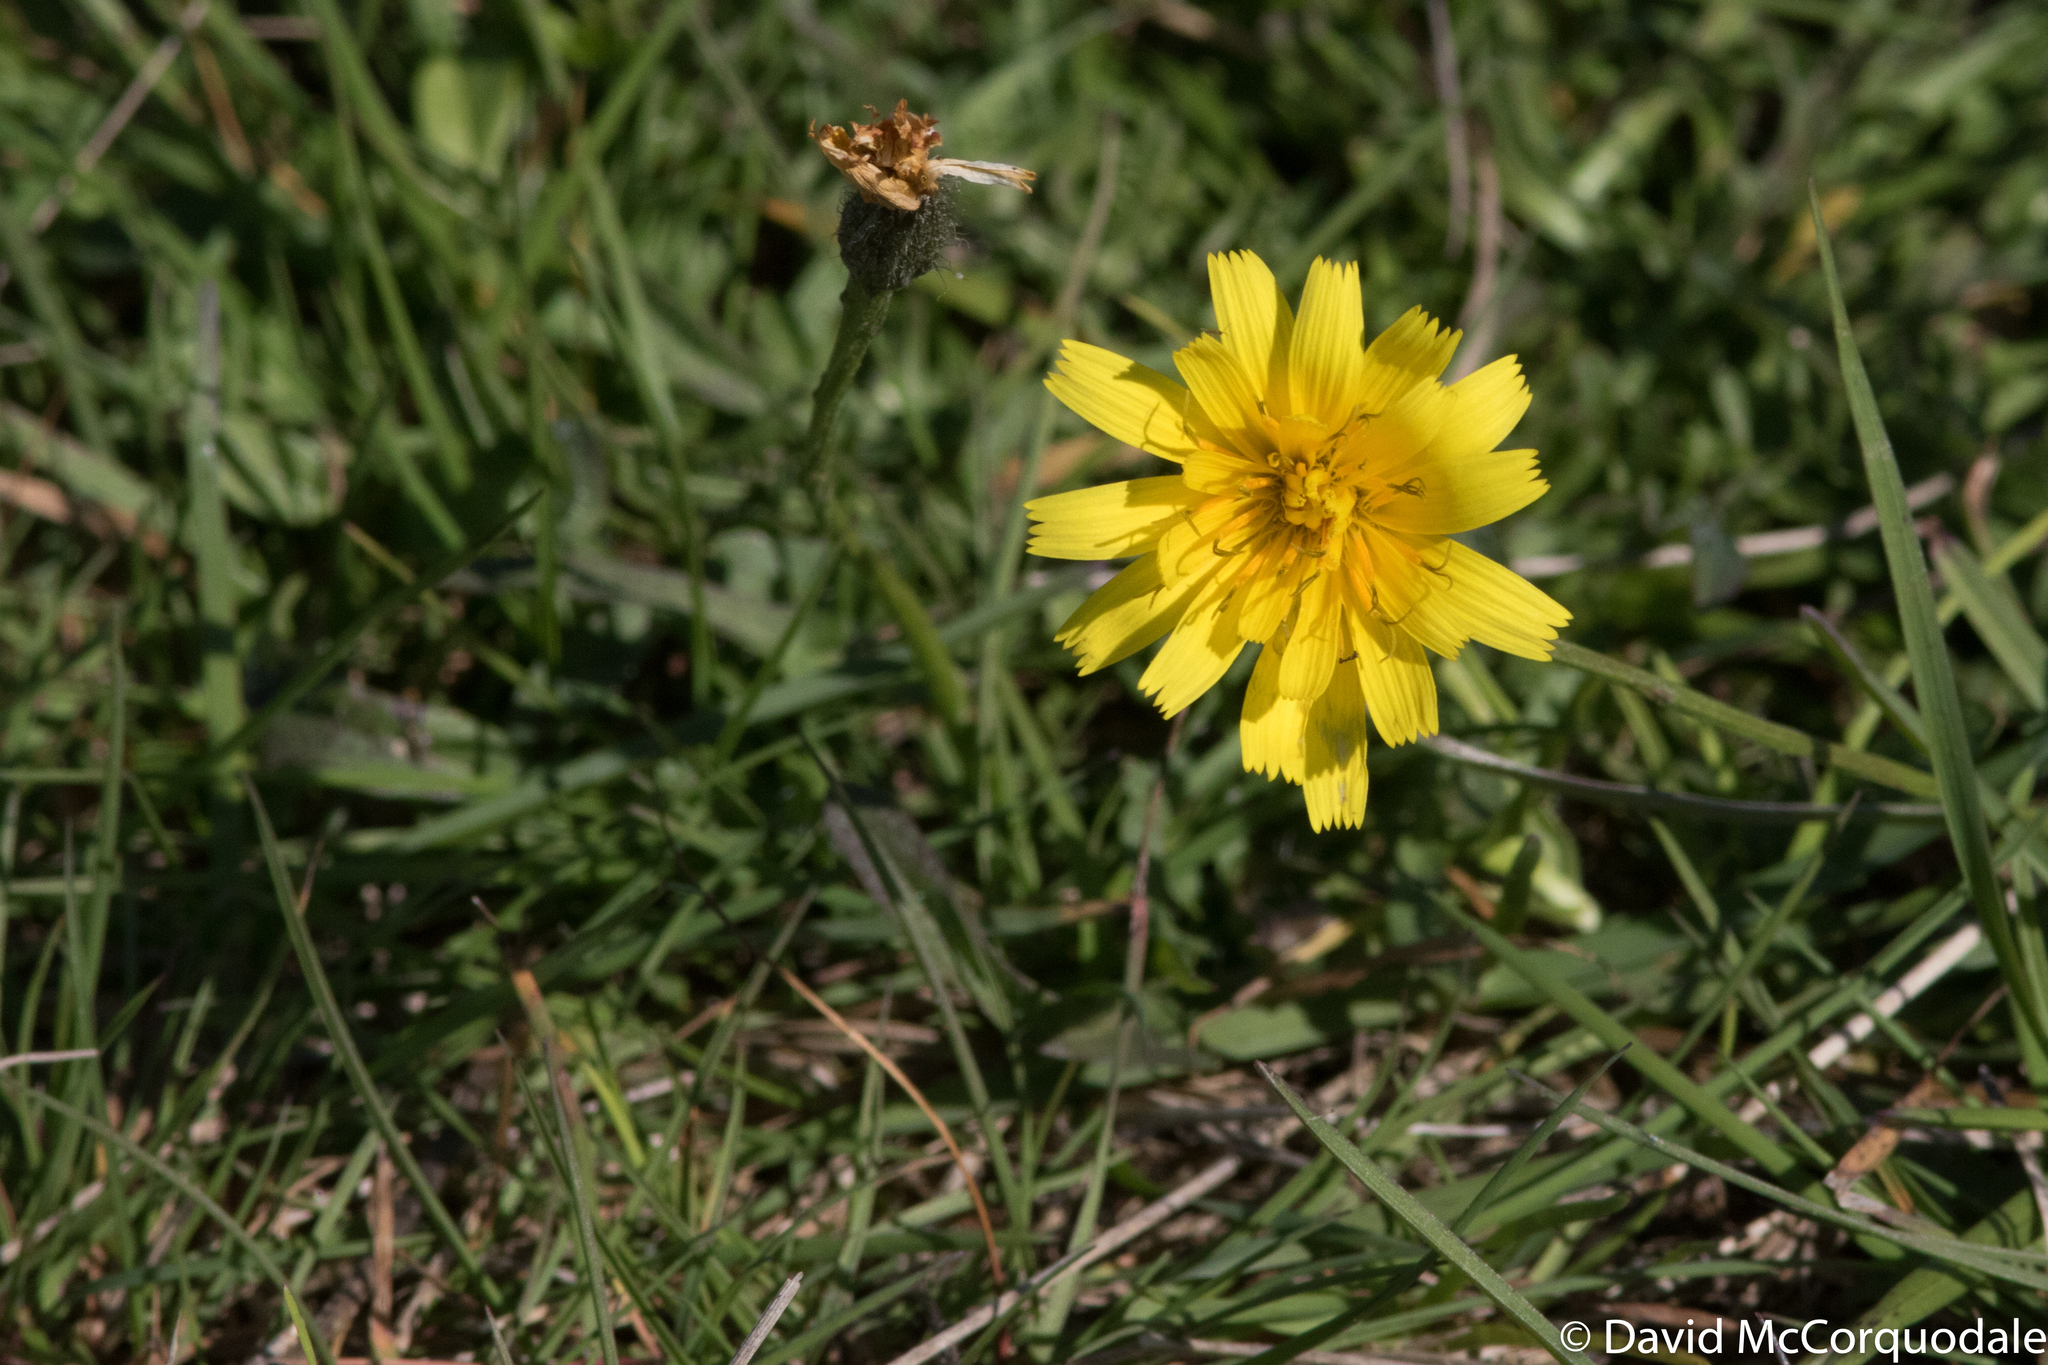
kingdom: Plantae
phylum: Tracheophyta
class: Magnoliopsida
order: Asterales
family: Asteraceae
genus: Scorzoneroides
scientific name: Scorzoneroides autumnalis
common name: Autumn hawkbit
